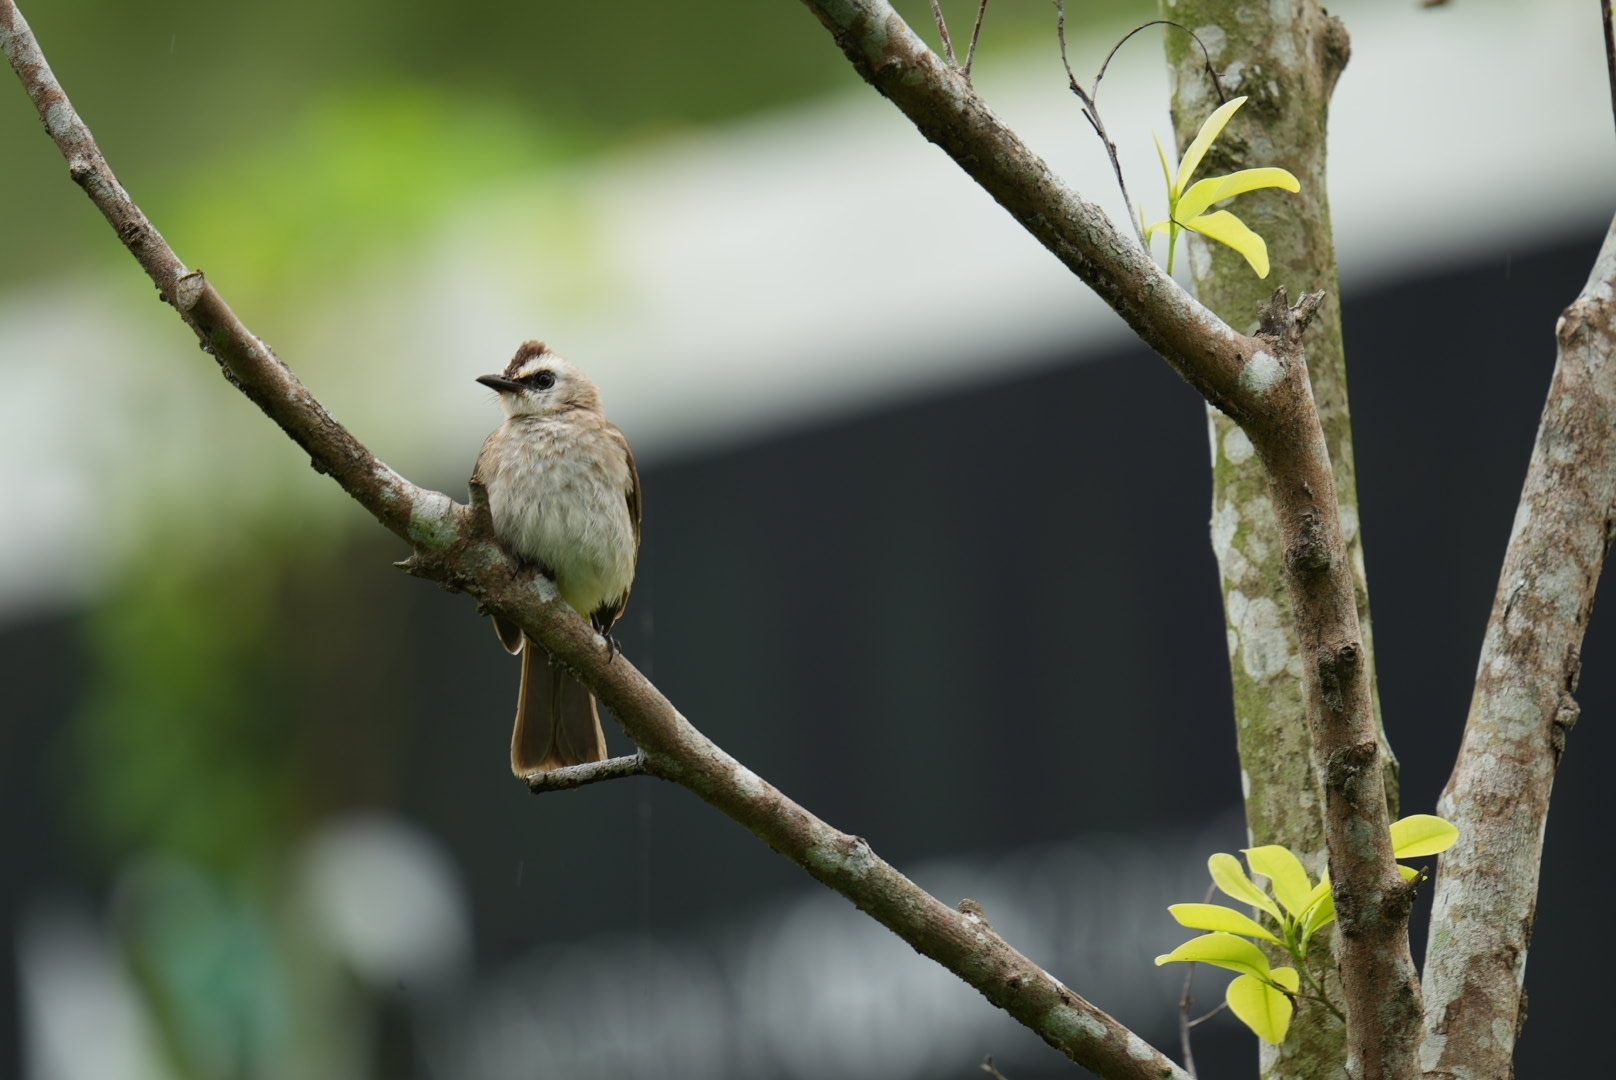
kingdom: Animalia
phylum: Chordata
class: Aves
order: Passeriformes
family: Pycnonotidae
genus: Pycnonotus
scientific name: Pycnonotus goiavier
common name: Yellow-vented bulbul
